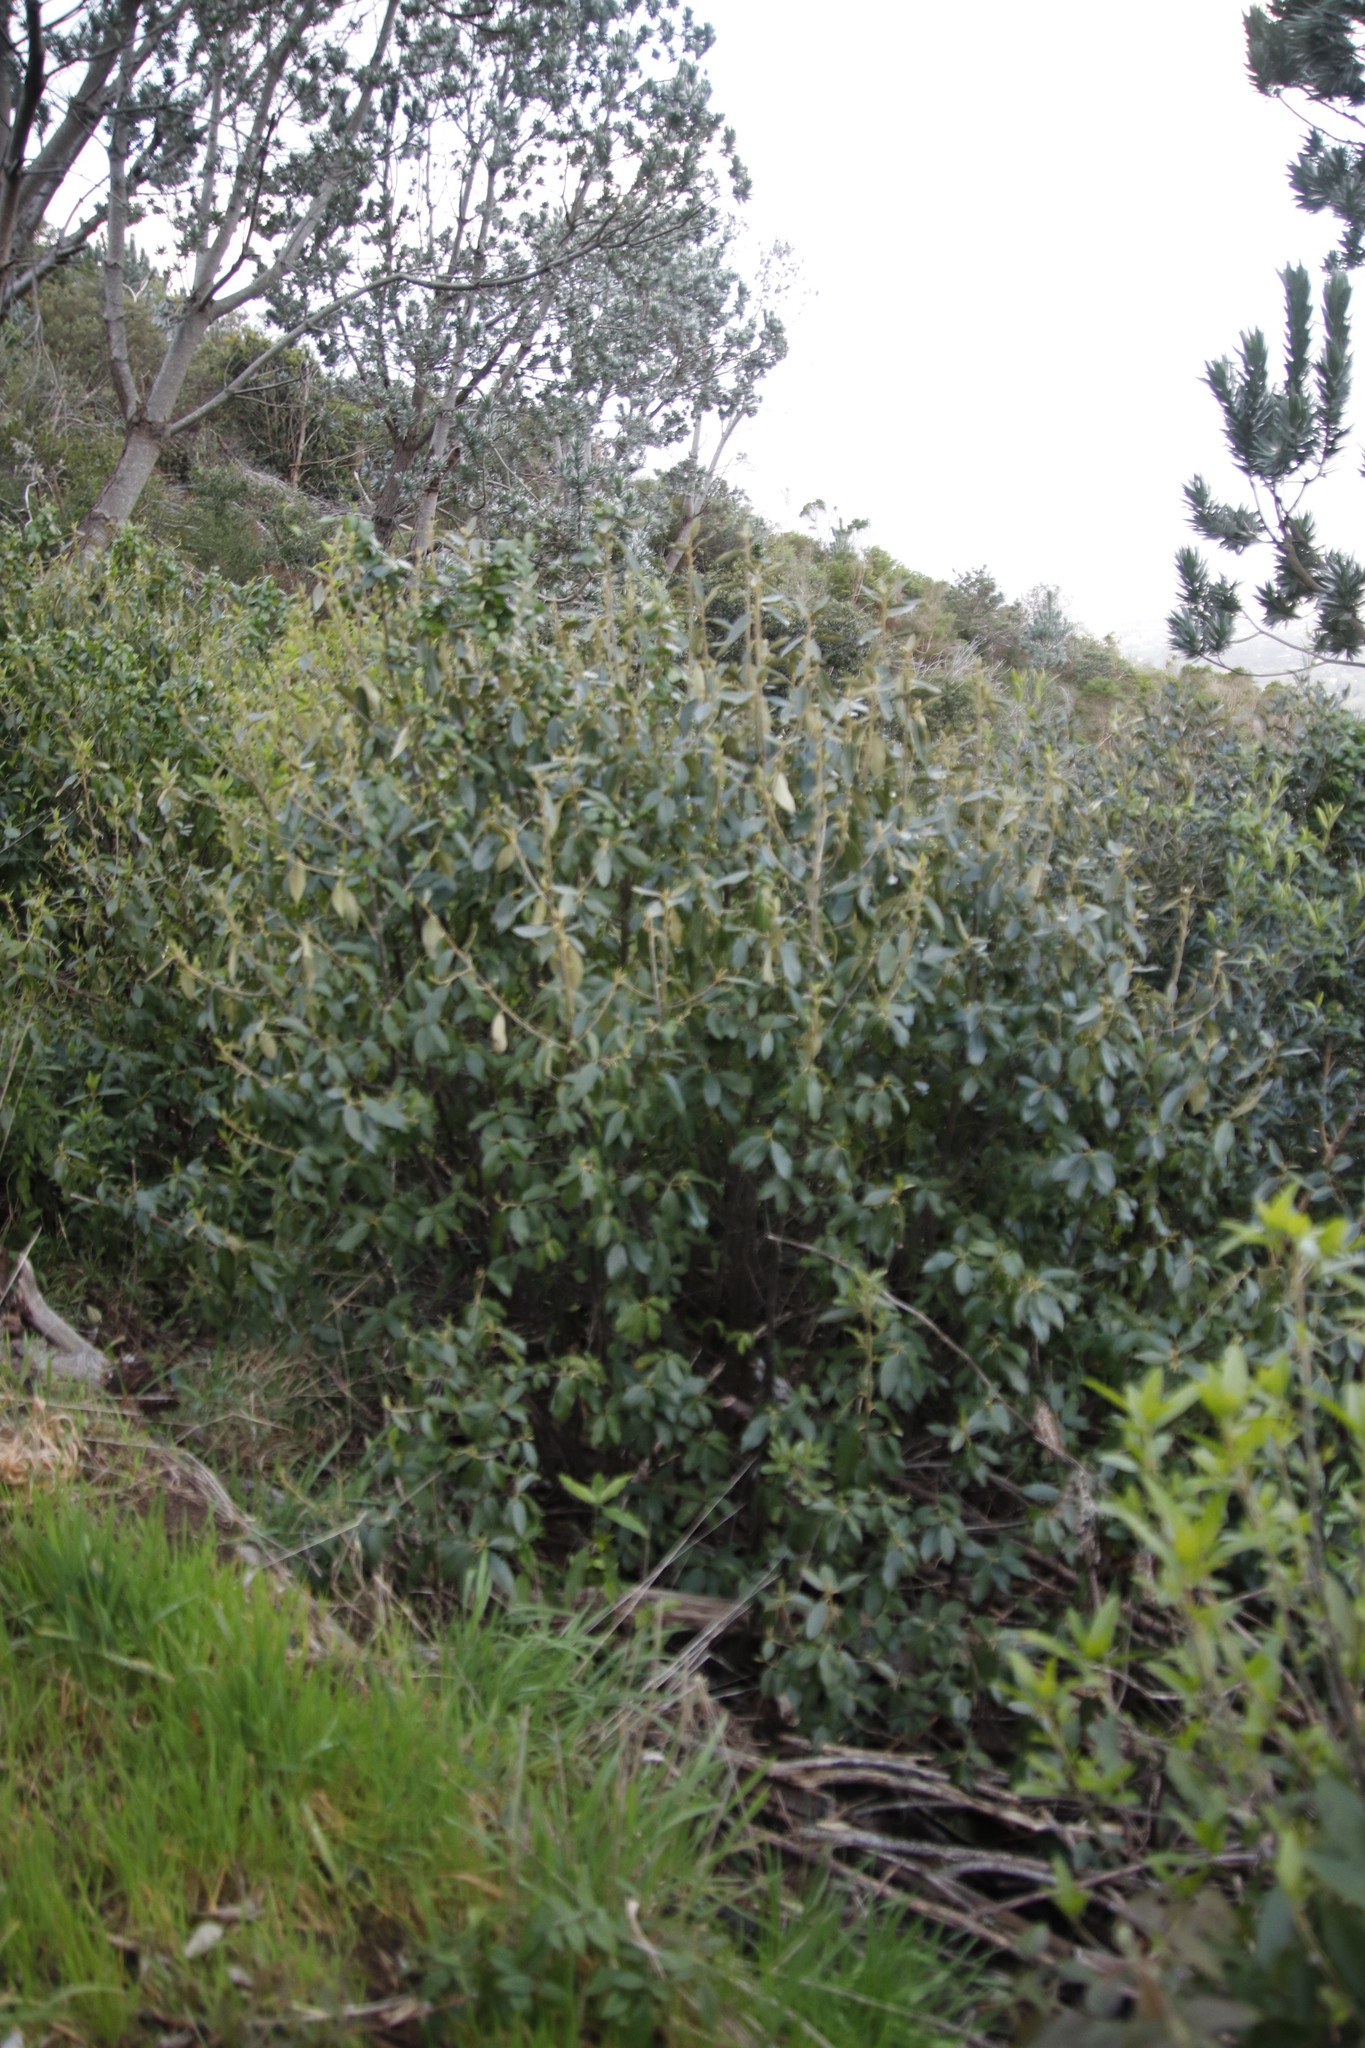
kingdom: Plantae
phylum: Tracheophyta
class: Magnoliopsida
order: Malpighiales
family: Achariaceae
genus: Kiggelaria
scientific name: Kiggelaria africana
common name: Wild peach
